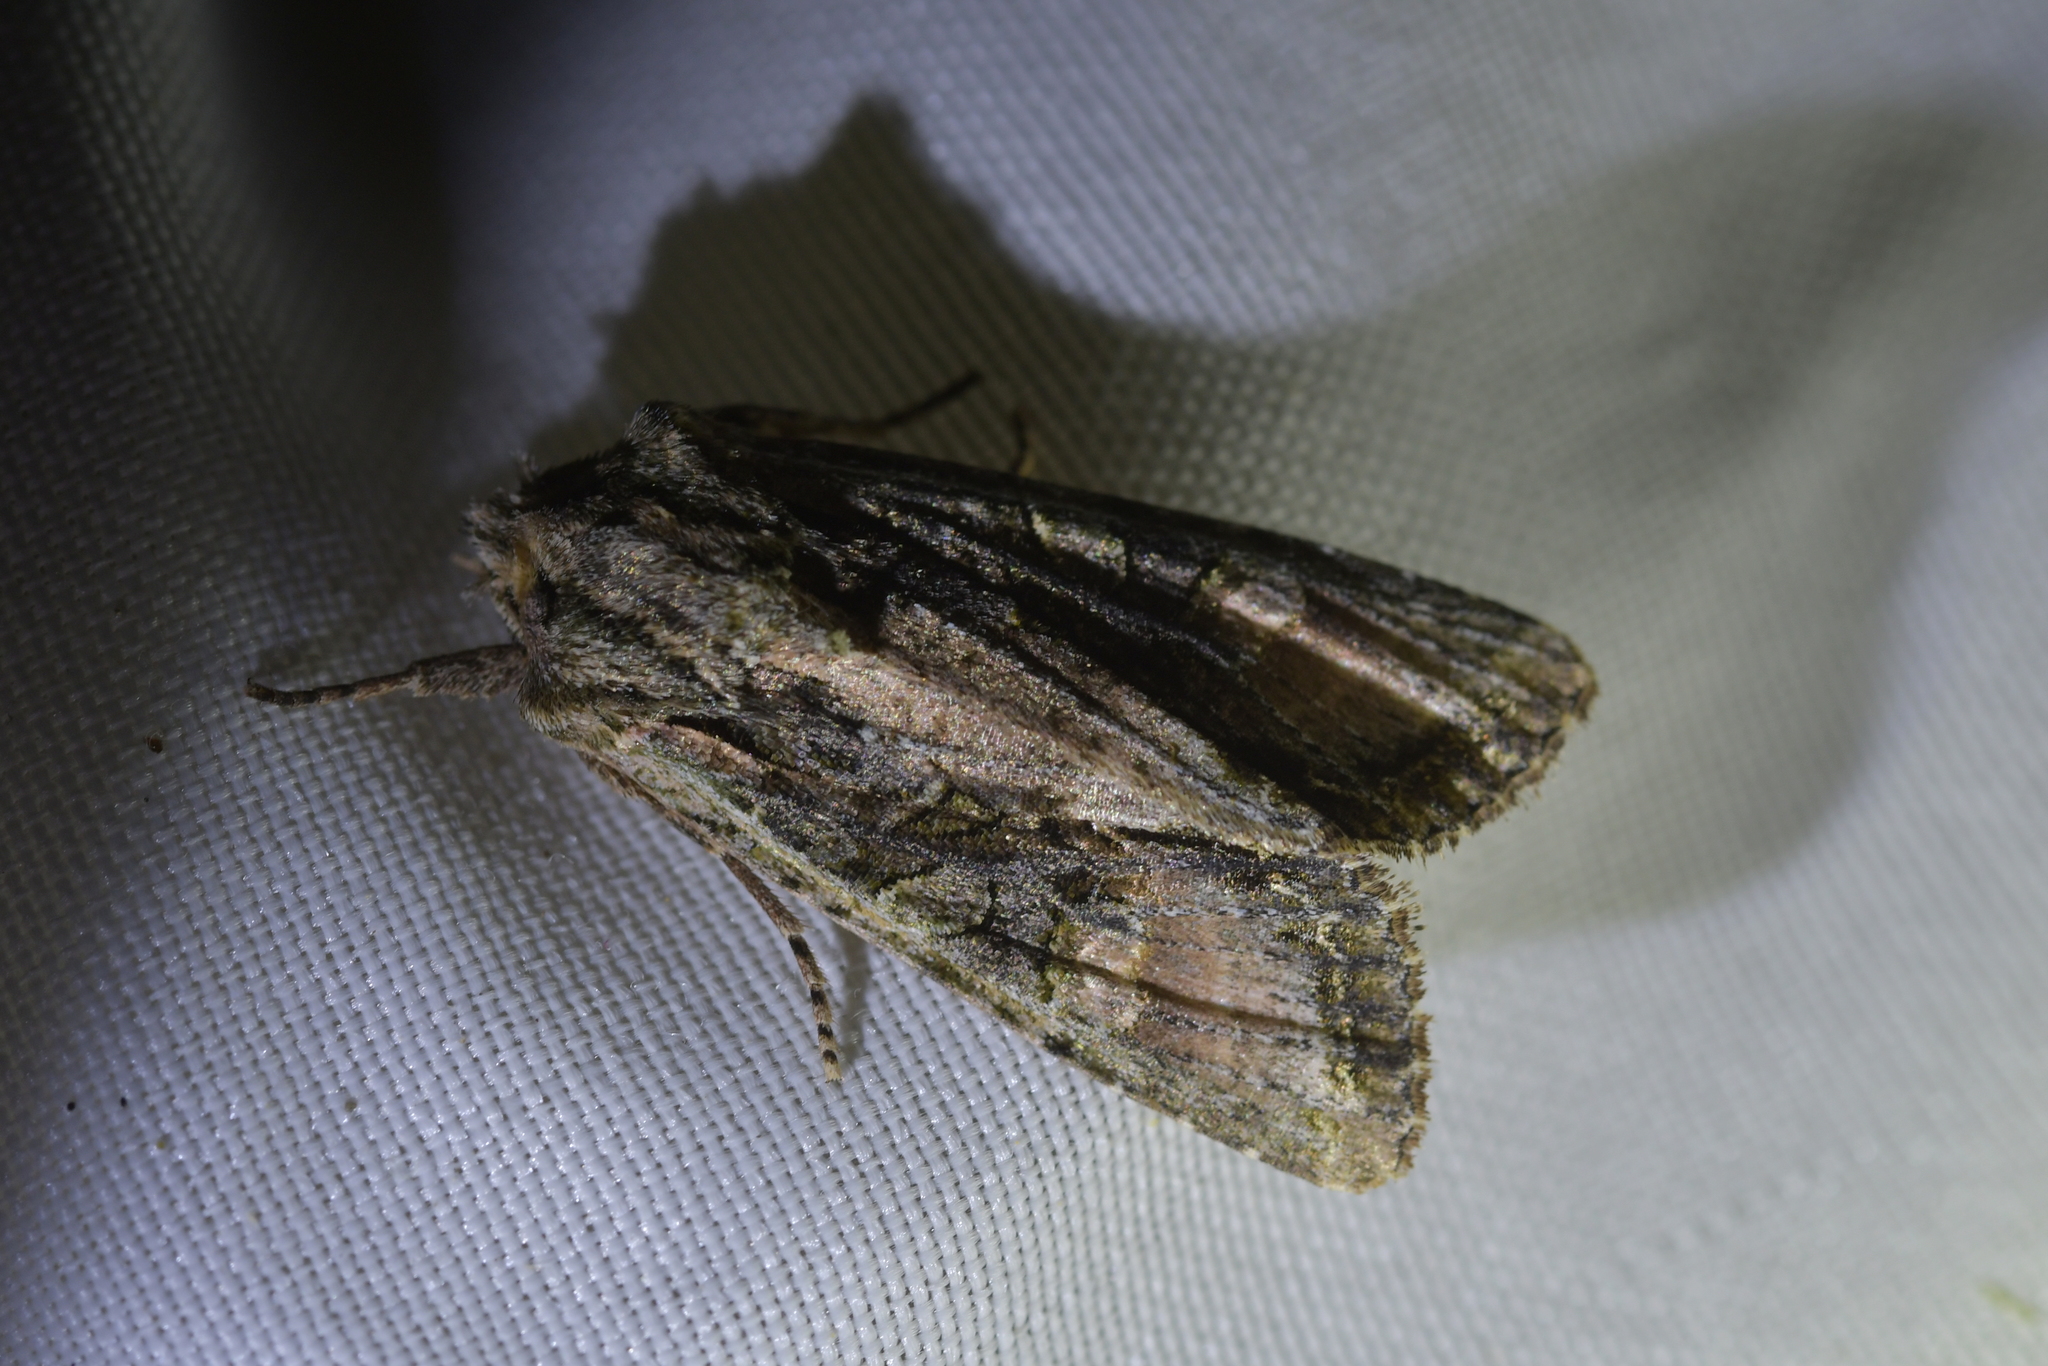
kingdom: Animalia
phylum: Arthropoda
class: Insecta
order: Lepidoptera
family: Noctuidae
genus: Ichneutica
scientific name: Ichneutica mutans
